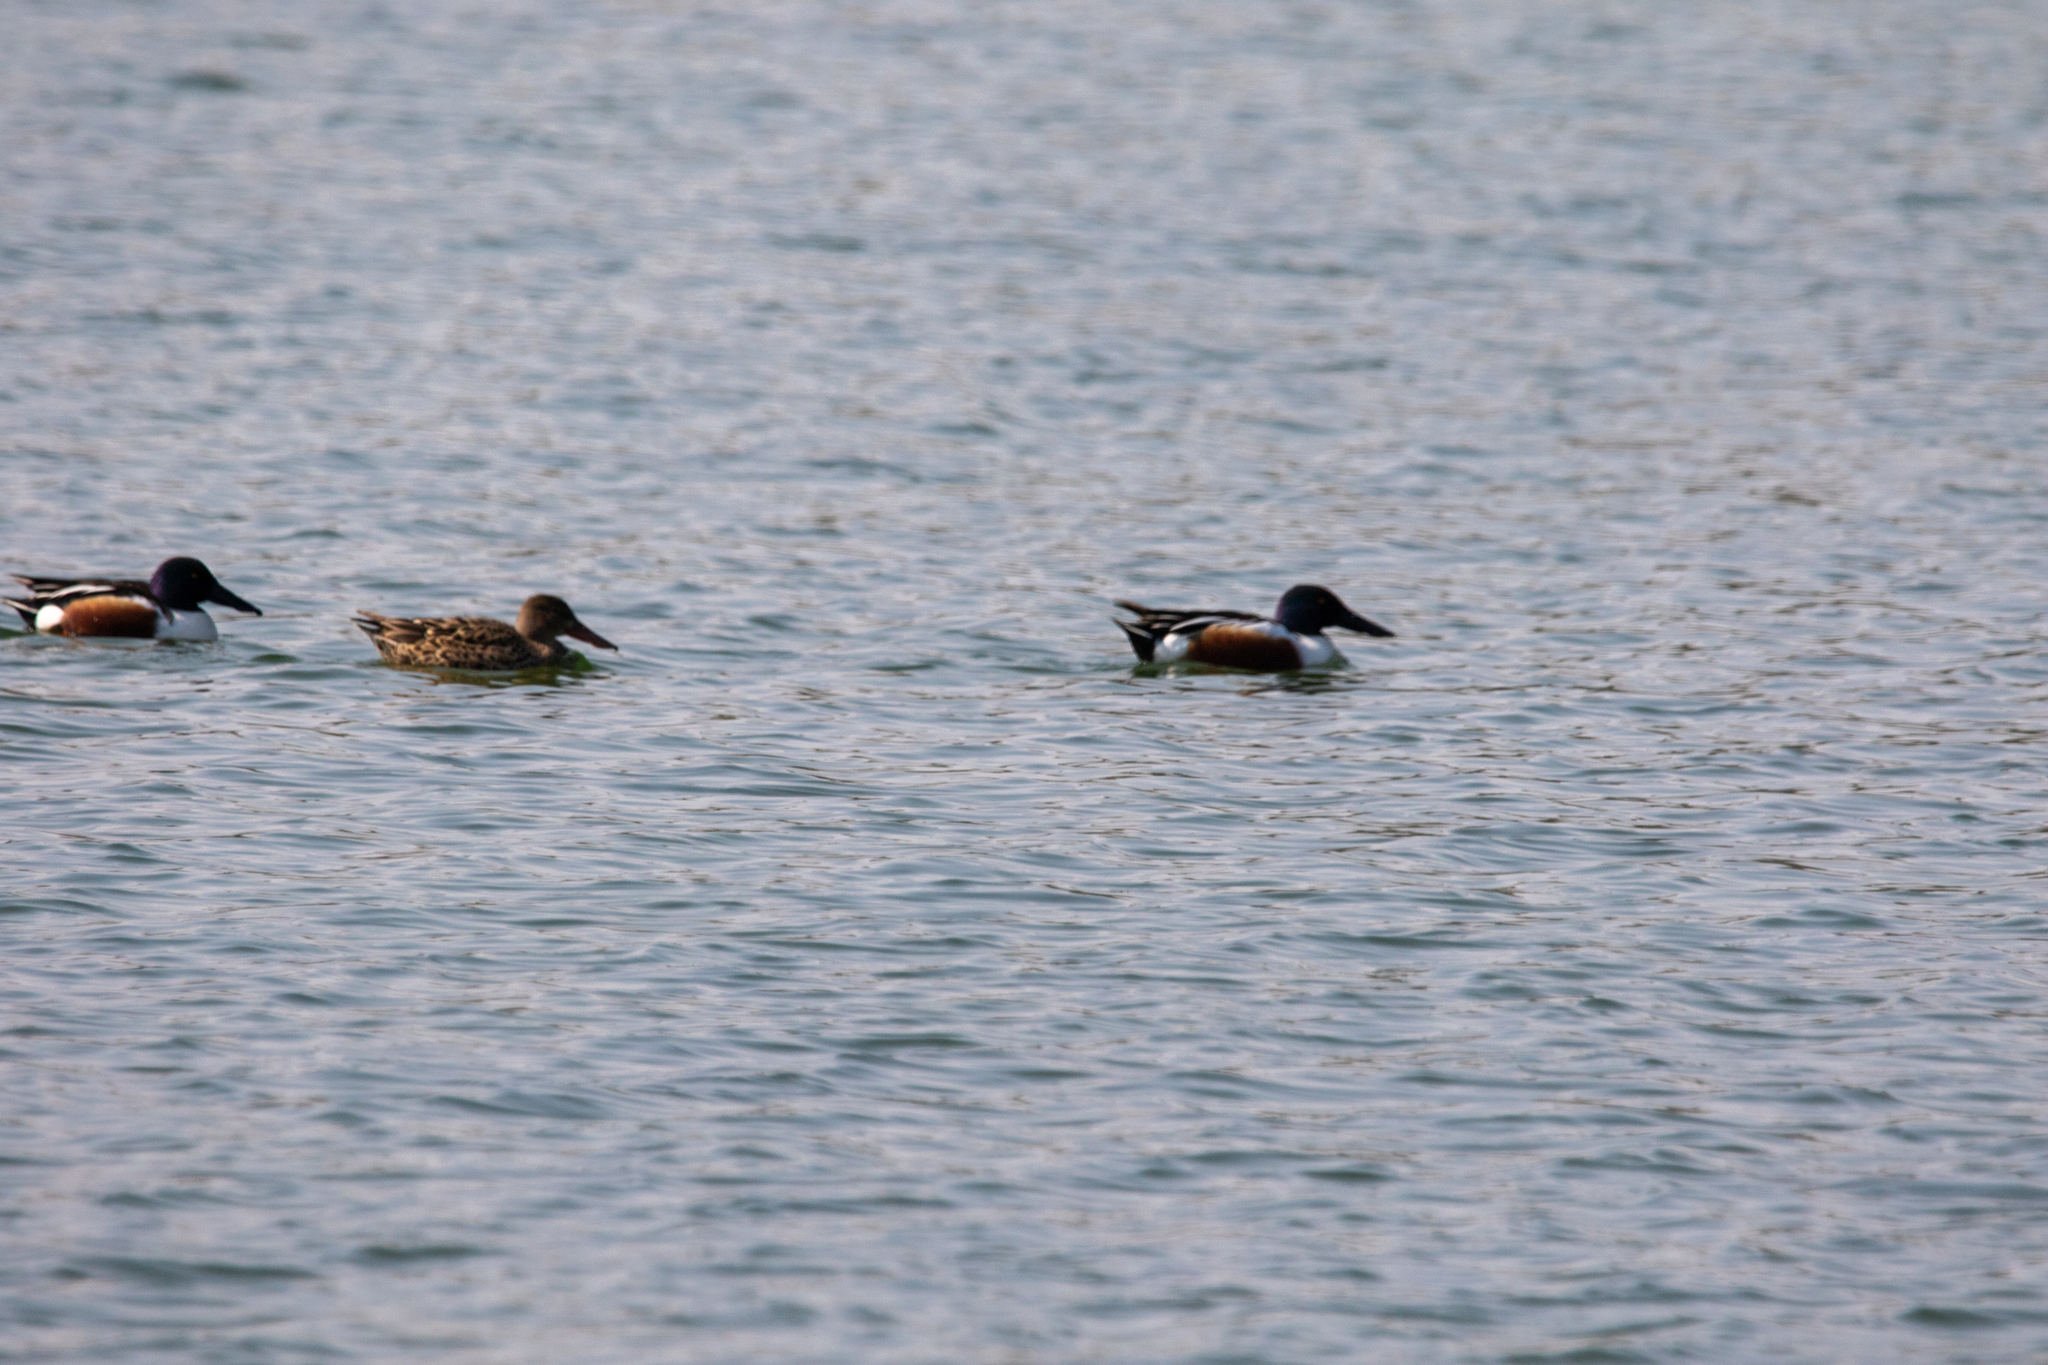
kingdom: Animalia
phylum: Chordata
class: Aves
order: Anseriformes
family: Anatidae
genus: Spatula
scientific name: Spatula clypeata
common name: Northern shoveler
